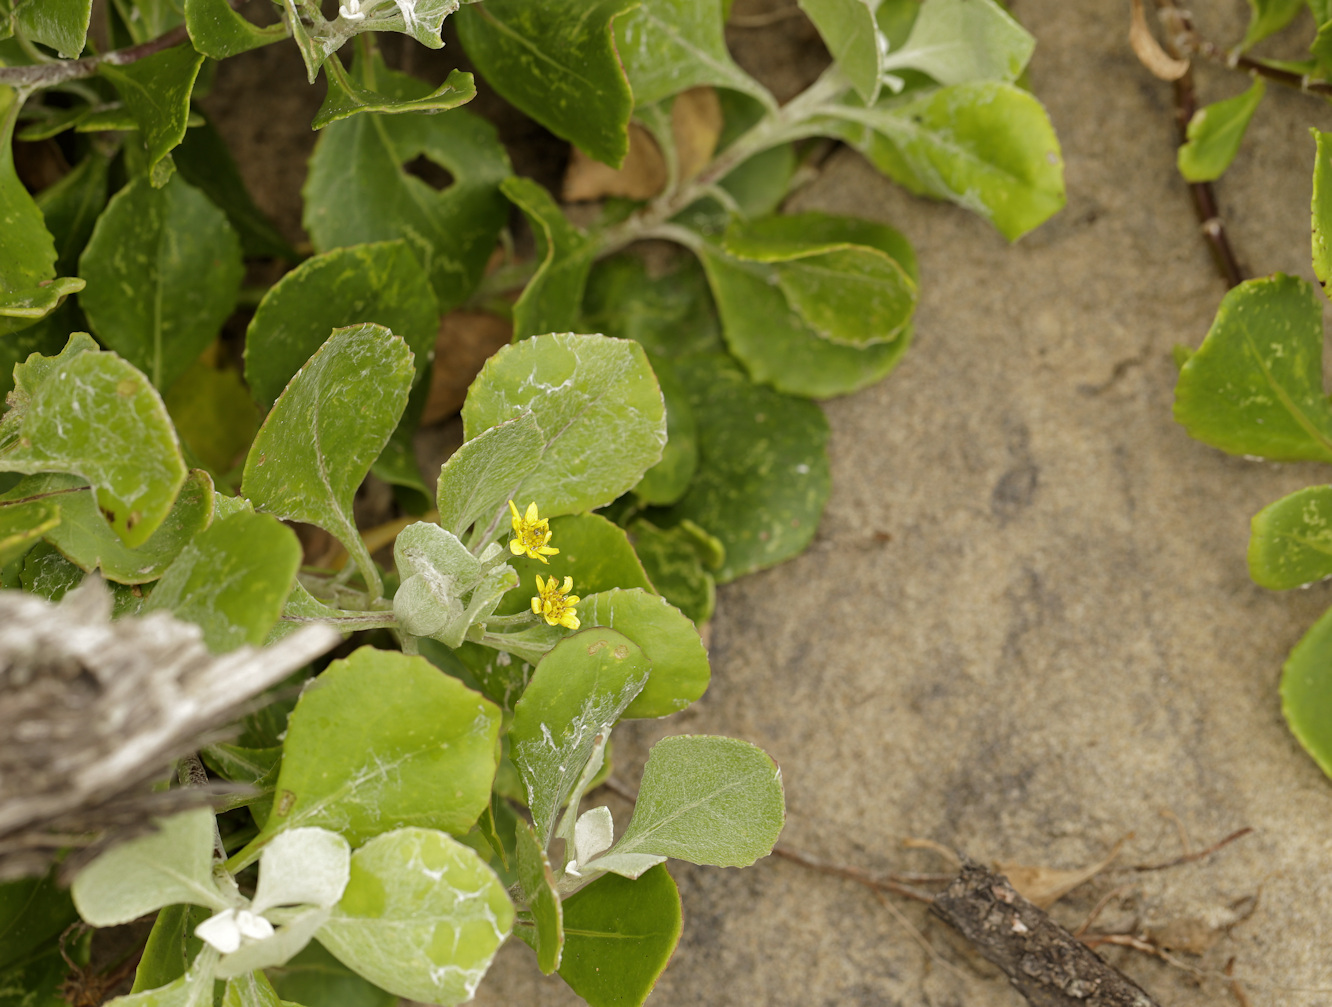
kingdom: Plantae
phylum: Tracheophyta
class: Magnoliopsida
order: Asterales
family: Asteraceae
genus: Osteospermum
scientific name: Osteospermum moniliferum
